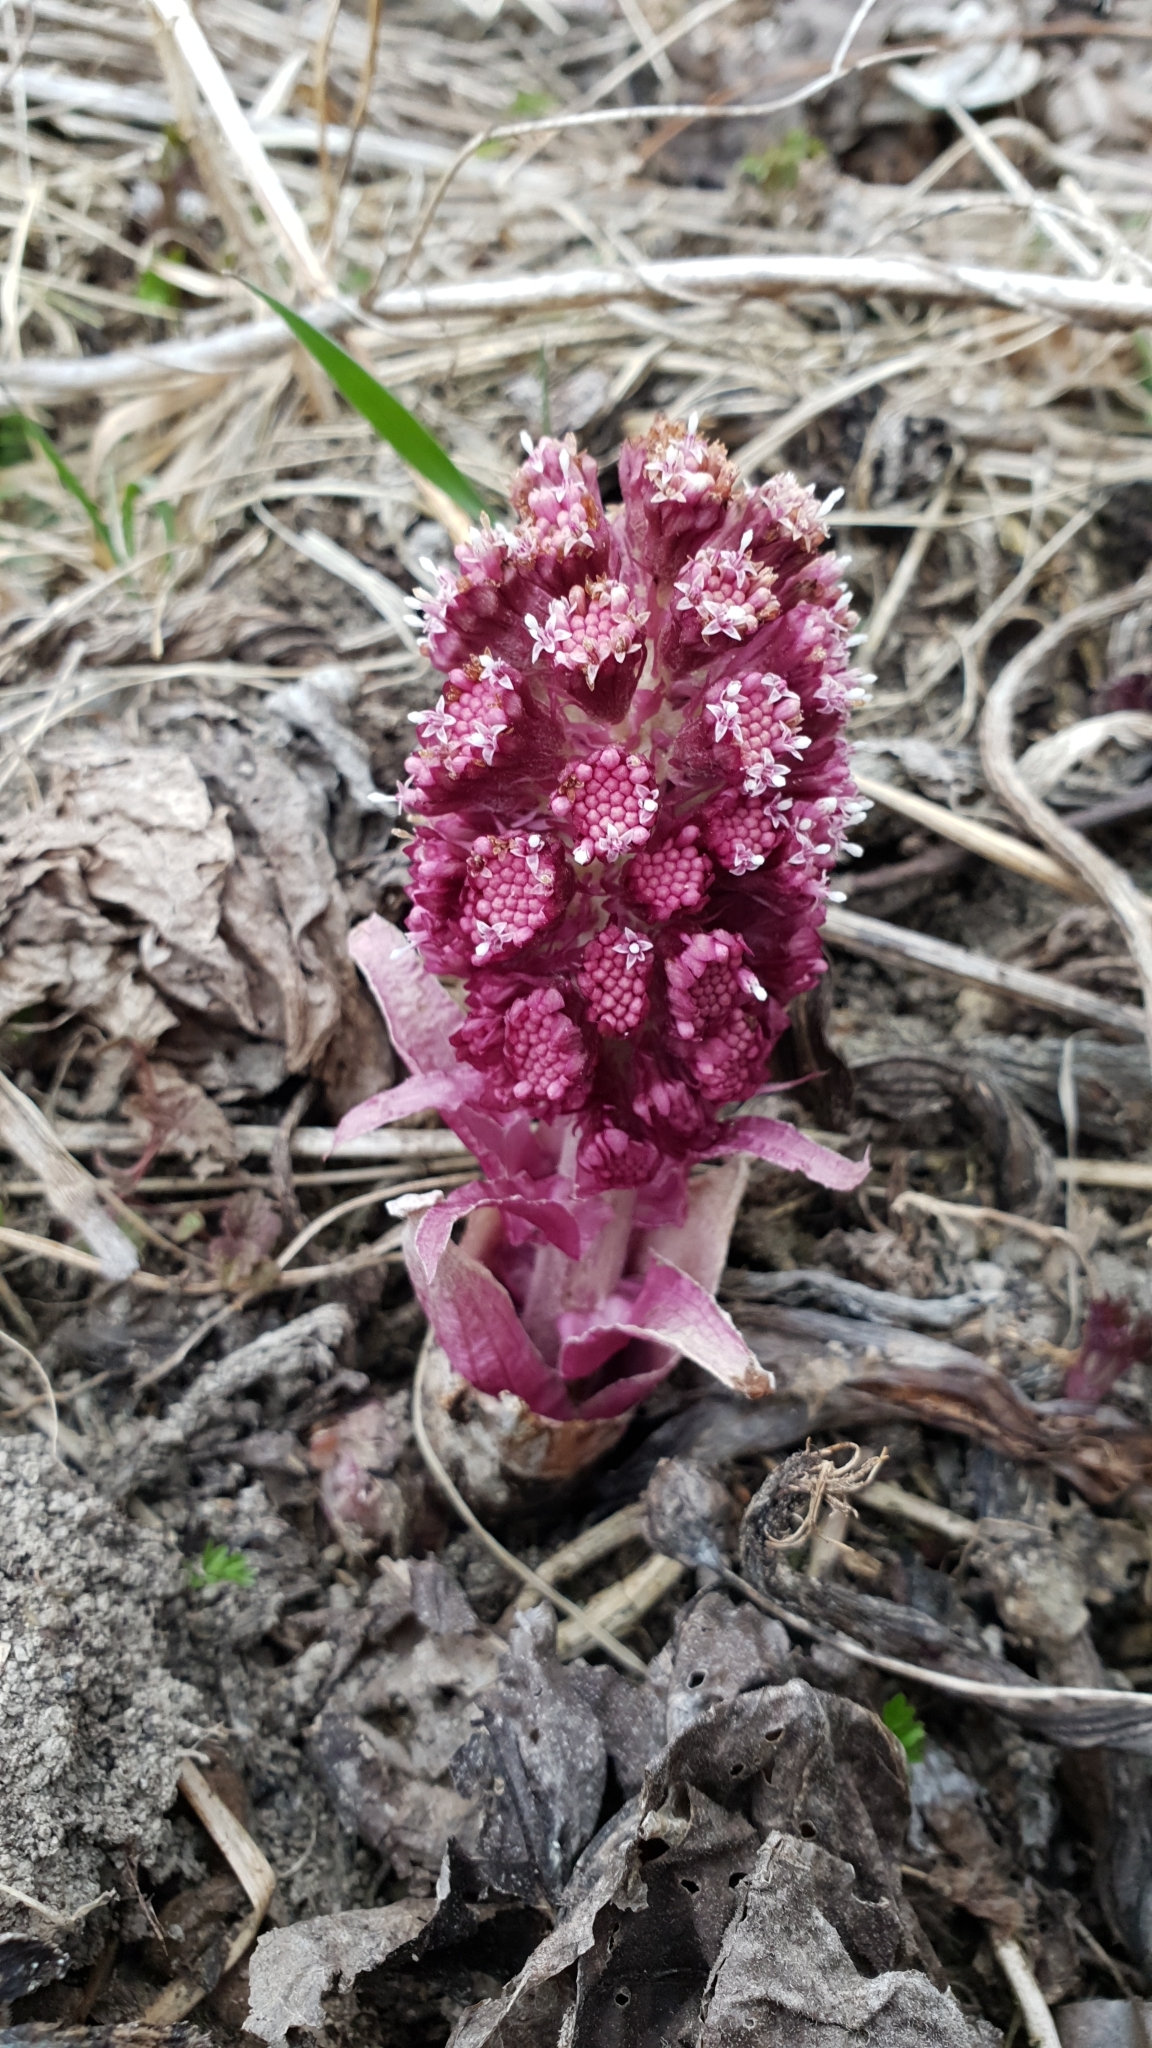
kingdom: Plantae
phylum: Tracheophyta
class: Magnoliopsida
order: Asterales
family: Asteraceae
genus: Petasites
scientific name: Petasites hybridus
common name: Butterbur
